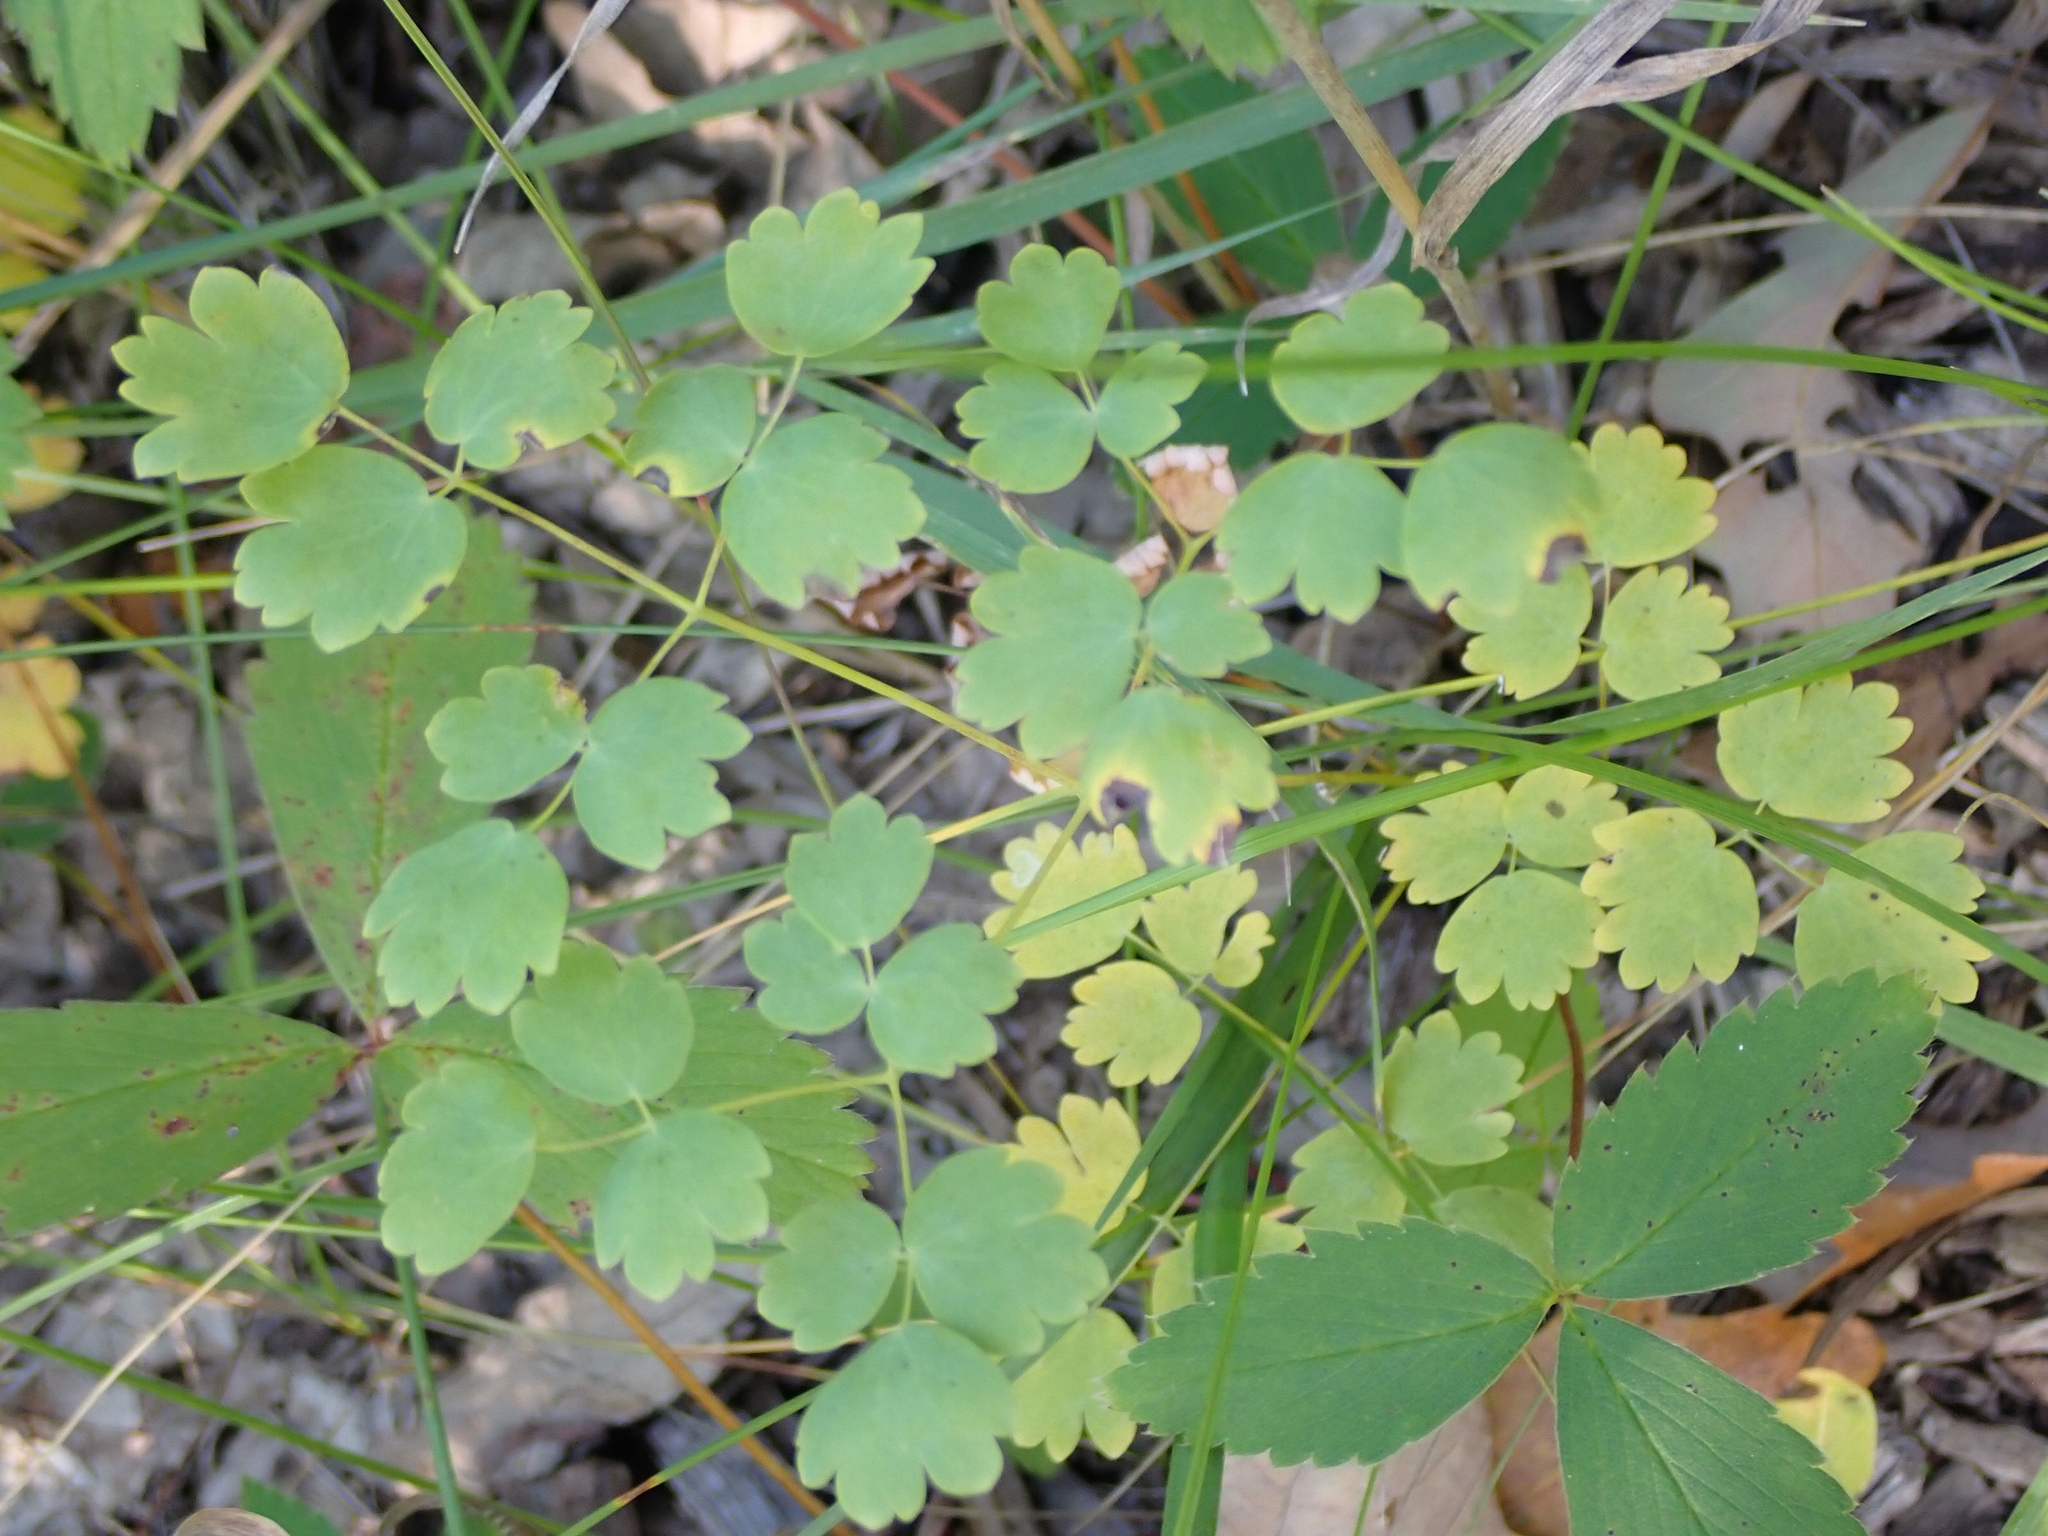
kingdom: Plantae
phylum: Tracheophyta
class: Magnoliopsida
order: Ranunculales
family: Ranunculaceae
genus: Thalictrum
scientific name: Thalictrum venulosum
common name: Early meadow-rue
